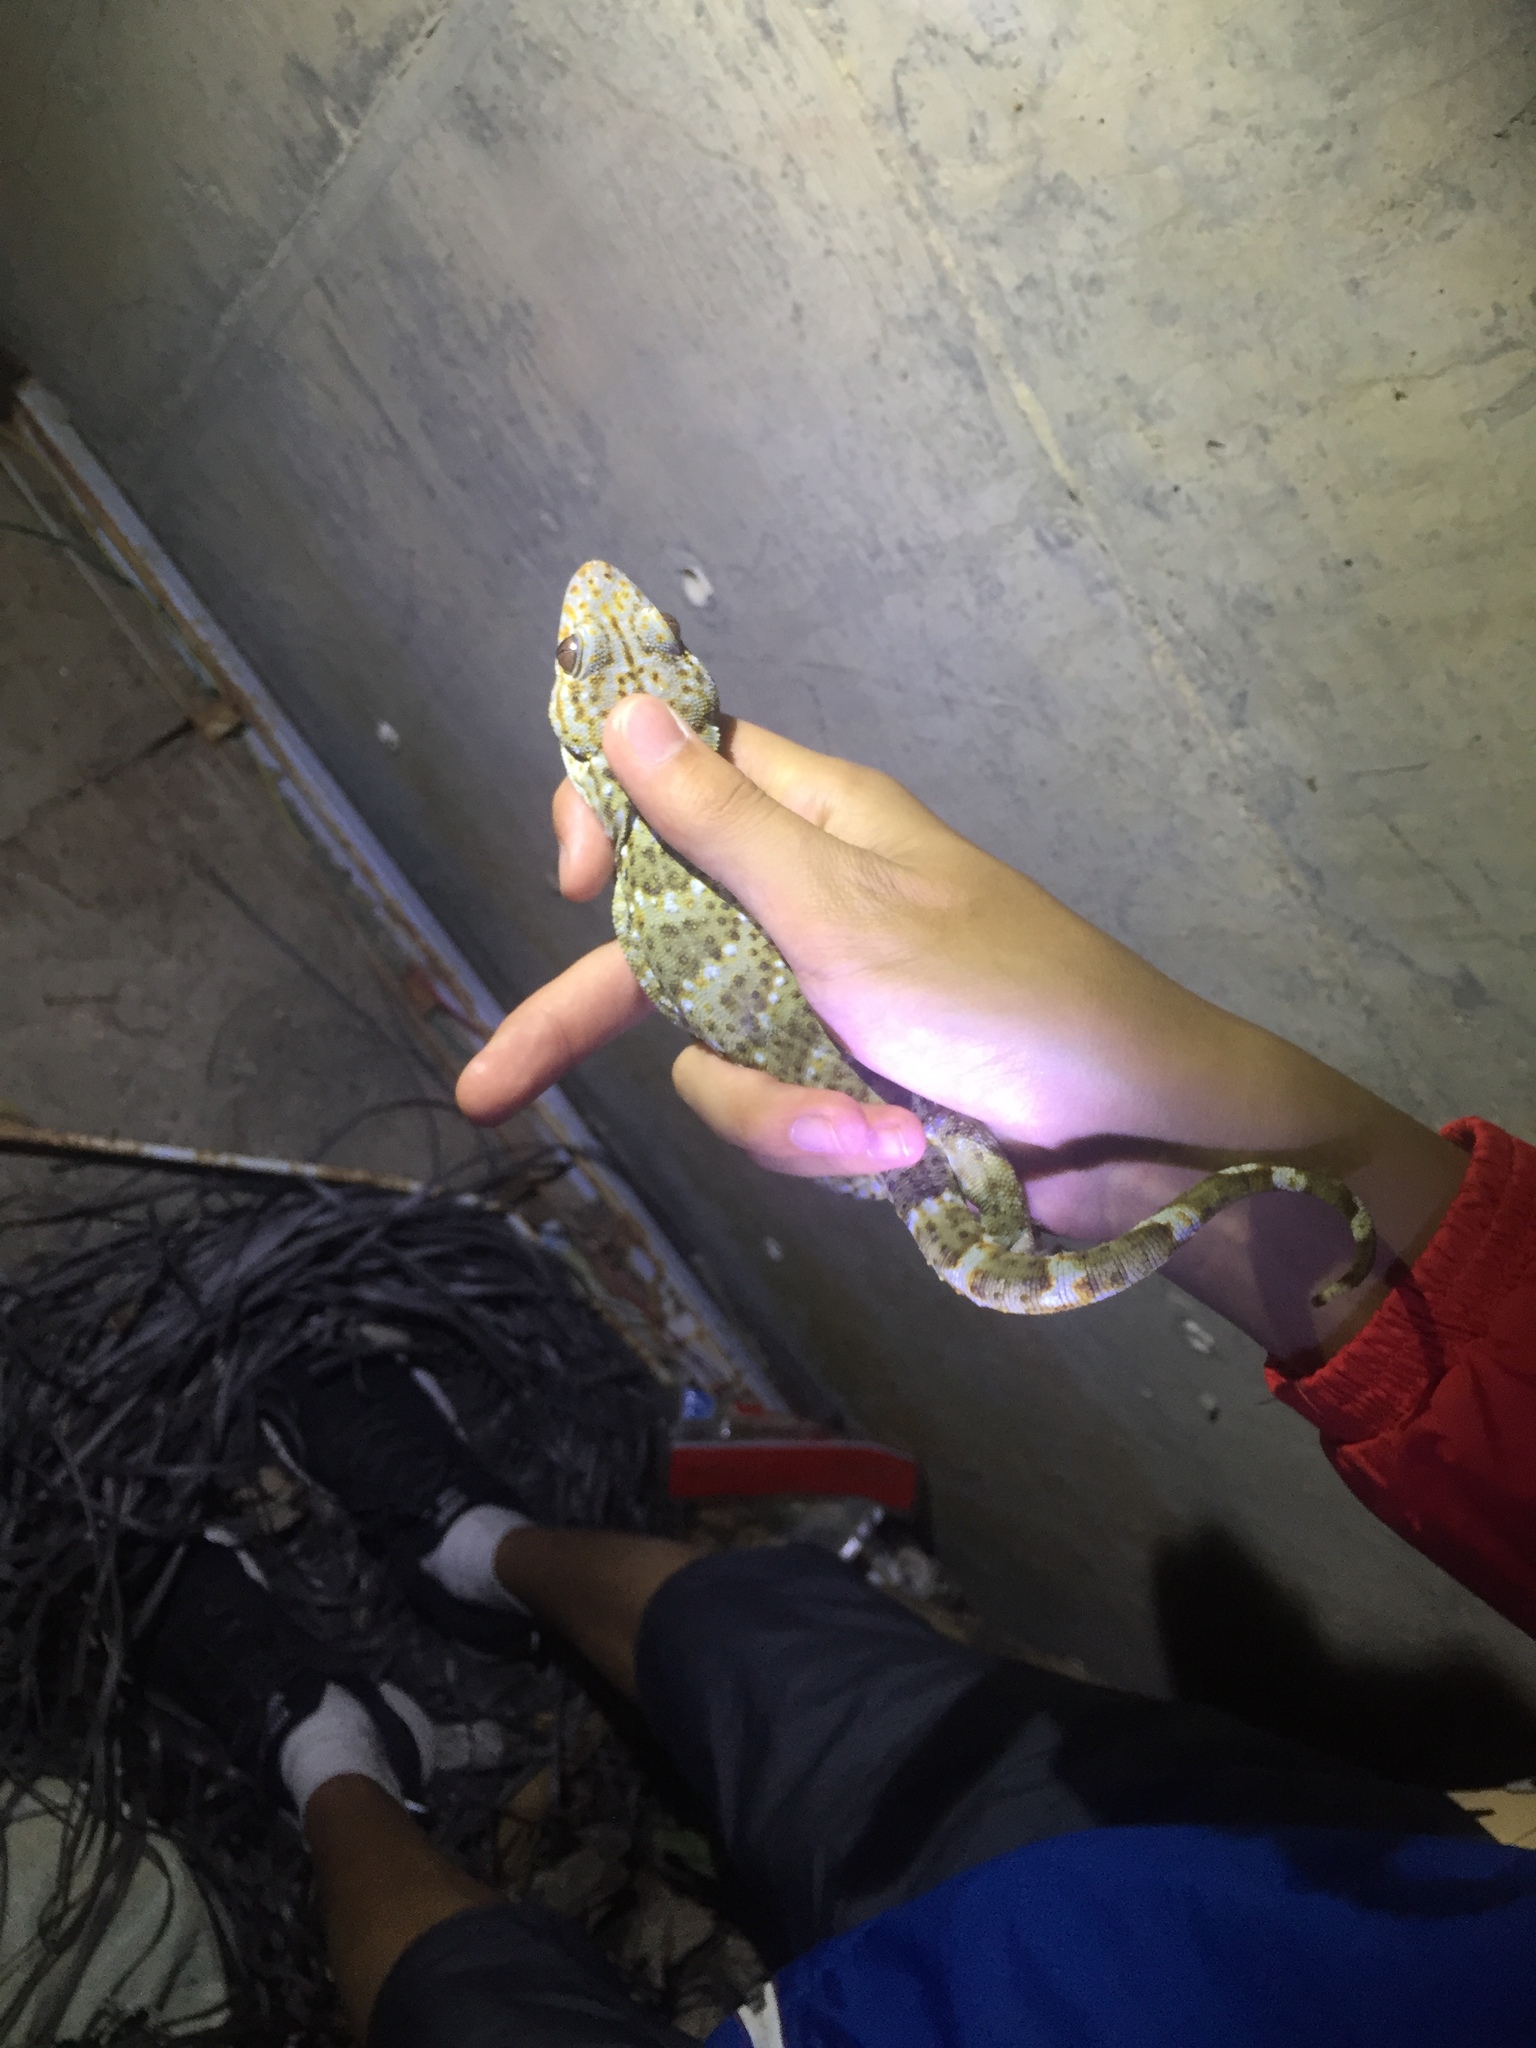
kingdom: Animalia
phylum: Chordata
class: Squamata
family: Gekkonidae
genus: Gekko
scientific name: Gekko reevesii
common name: Reeves’ tokay gecko
